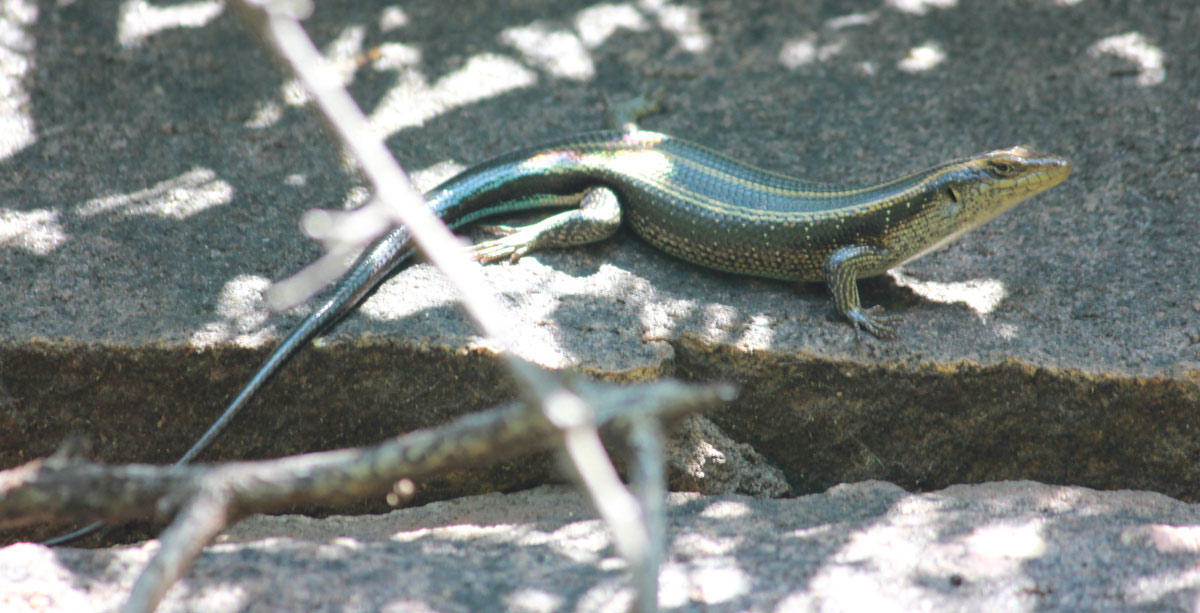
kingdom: Animalia
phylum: Chordata
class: Squamata
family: Scincidae
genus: Trachylepis
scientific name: Trachylepis margaritifera
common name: Rainbow skink
